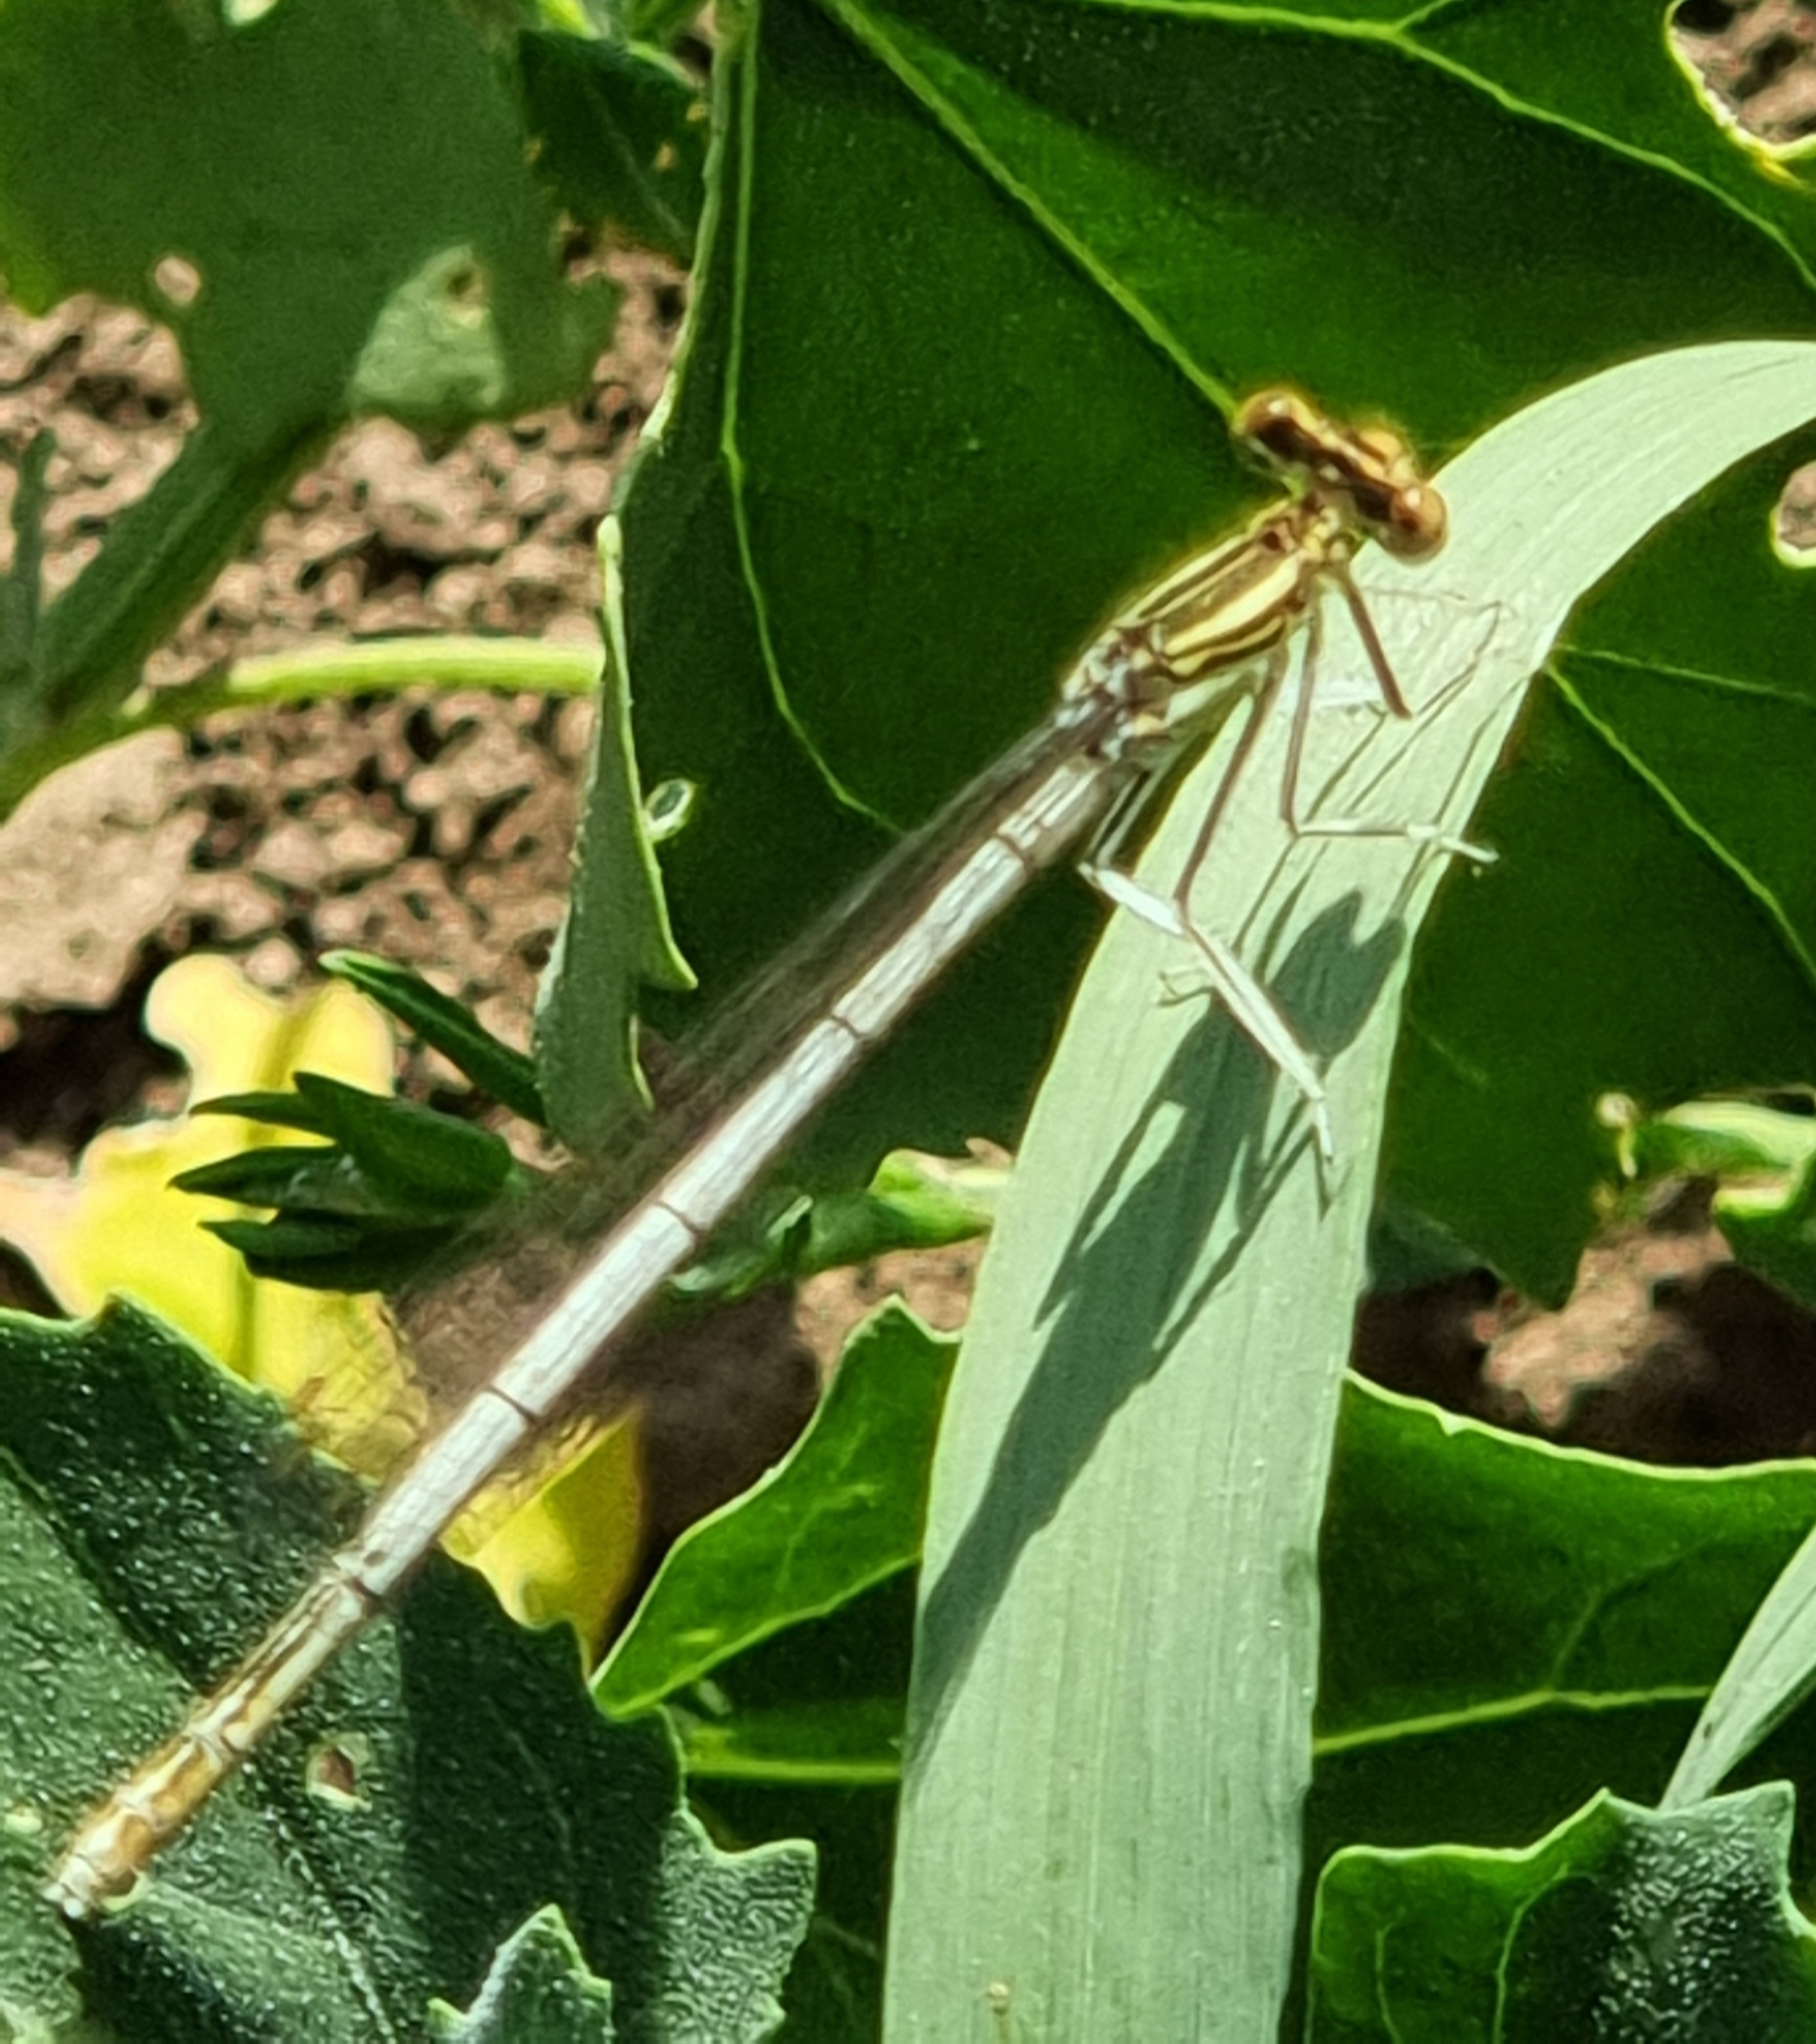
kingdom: Animalia
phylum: Arthropoda
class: Insecta
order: Odonata
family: Platycnemididae
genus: Platycnemis
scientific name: Platycnemis pennipes
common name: White-legged damselfly
